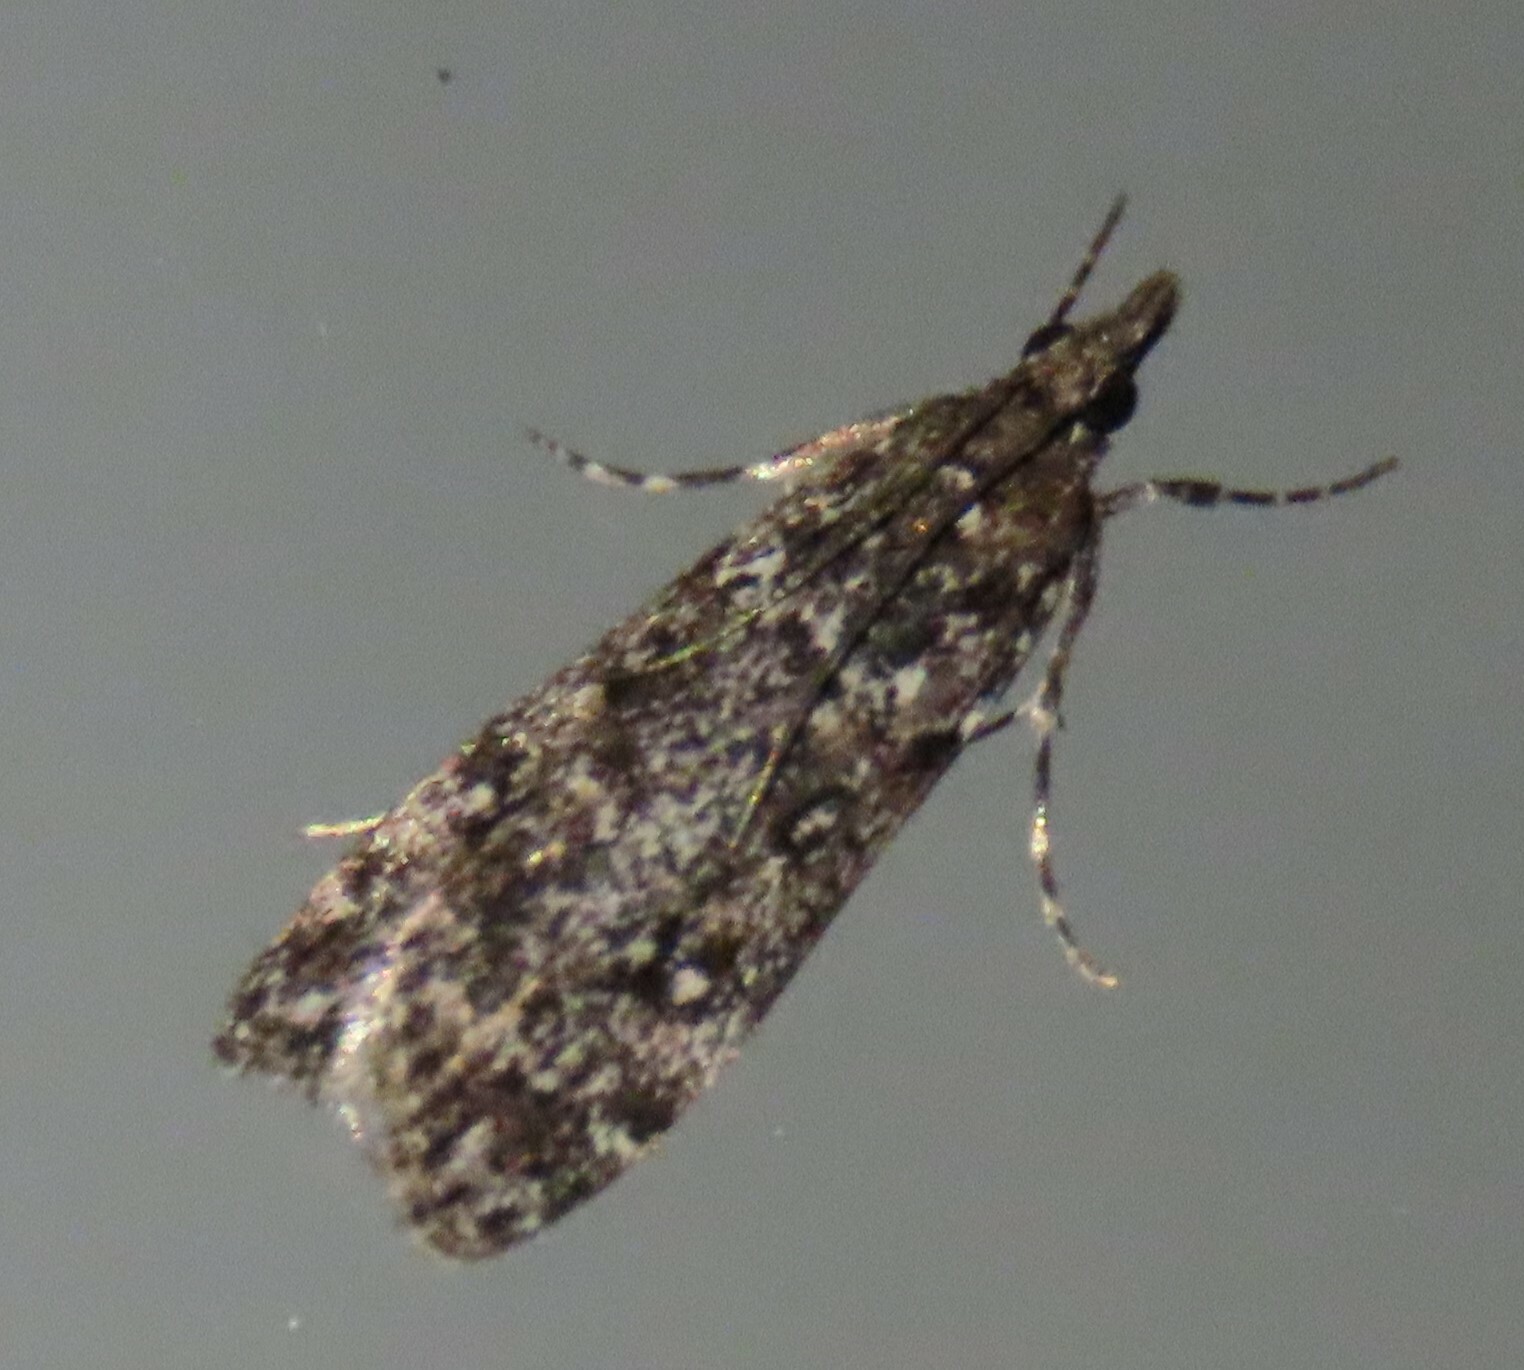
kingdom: Animalia
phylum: Arthropoda
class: Insecta
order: Lepidoptera
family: Crambidae
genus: Eudonia
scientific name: Eudonia philerga
